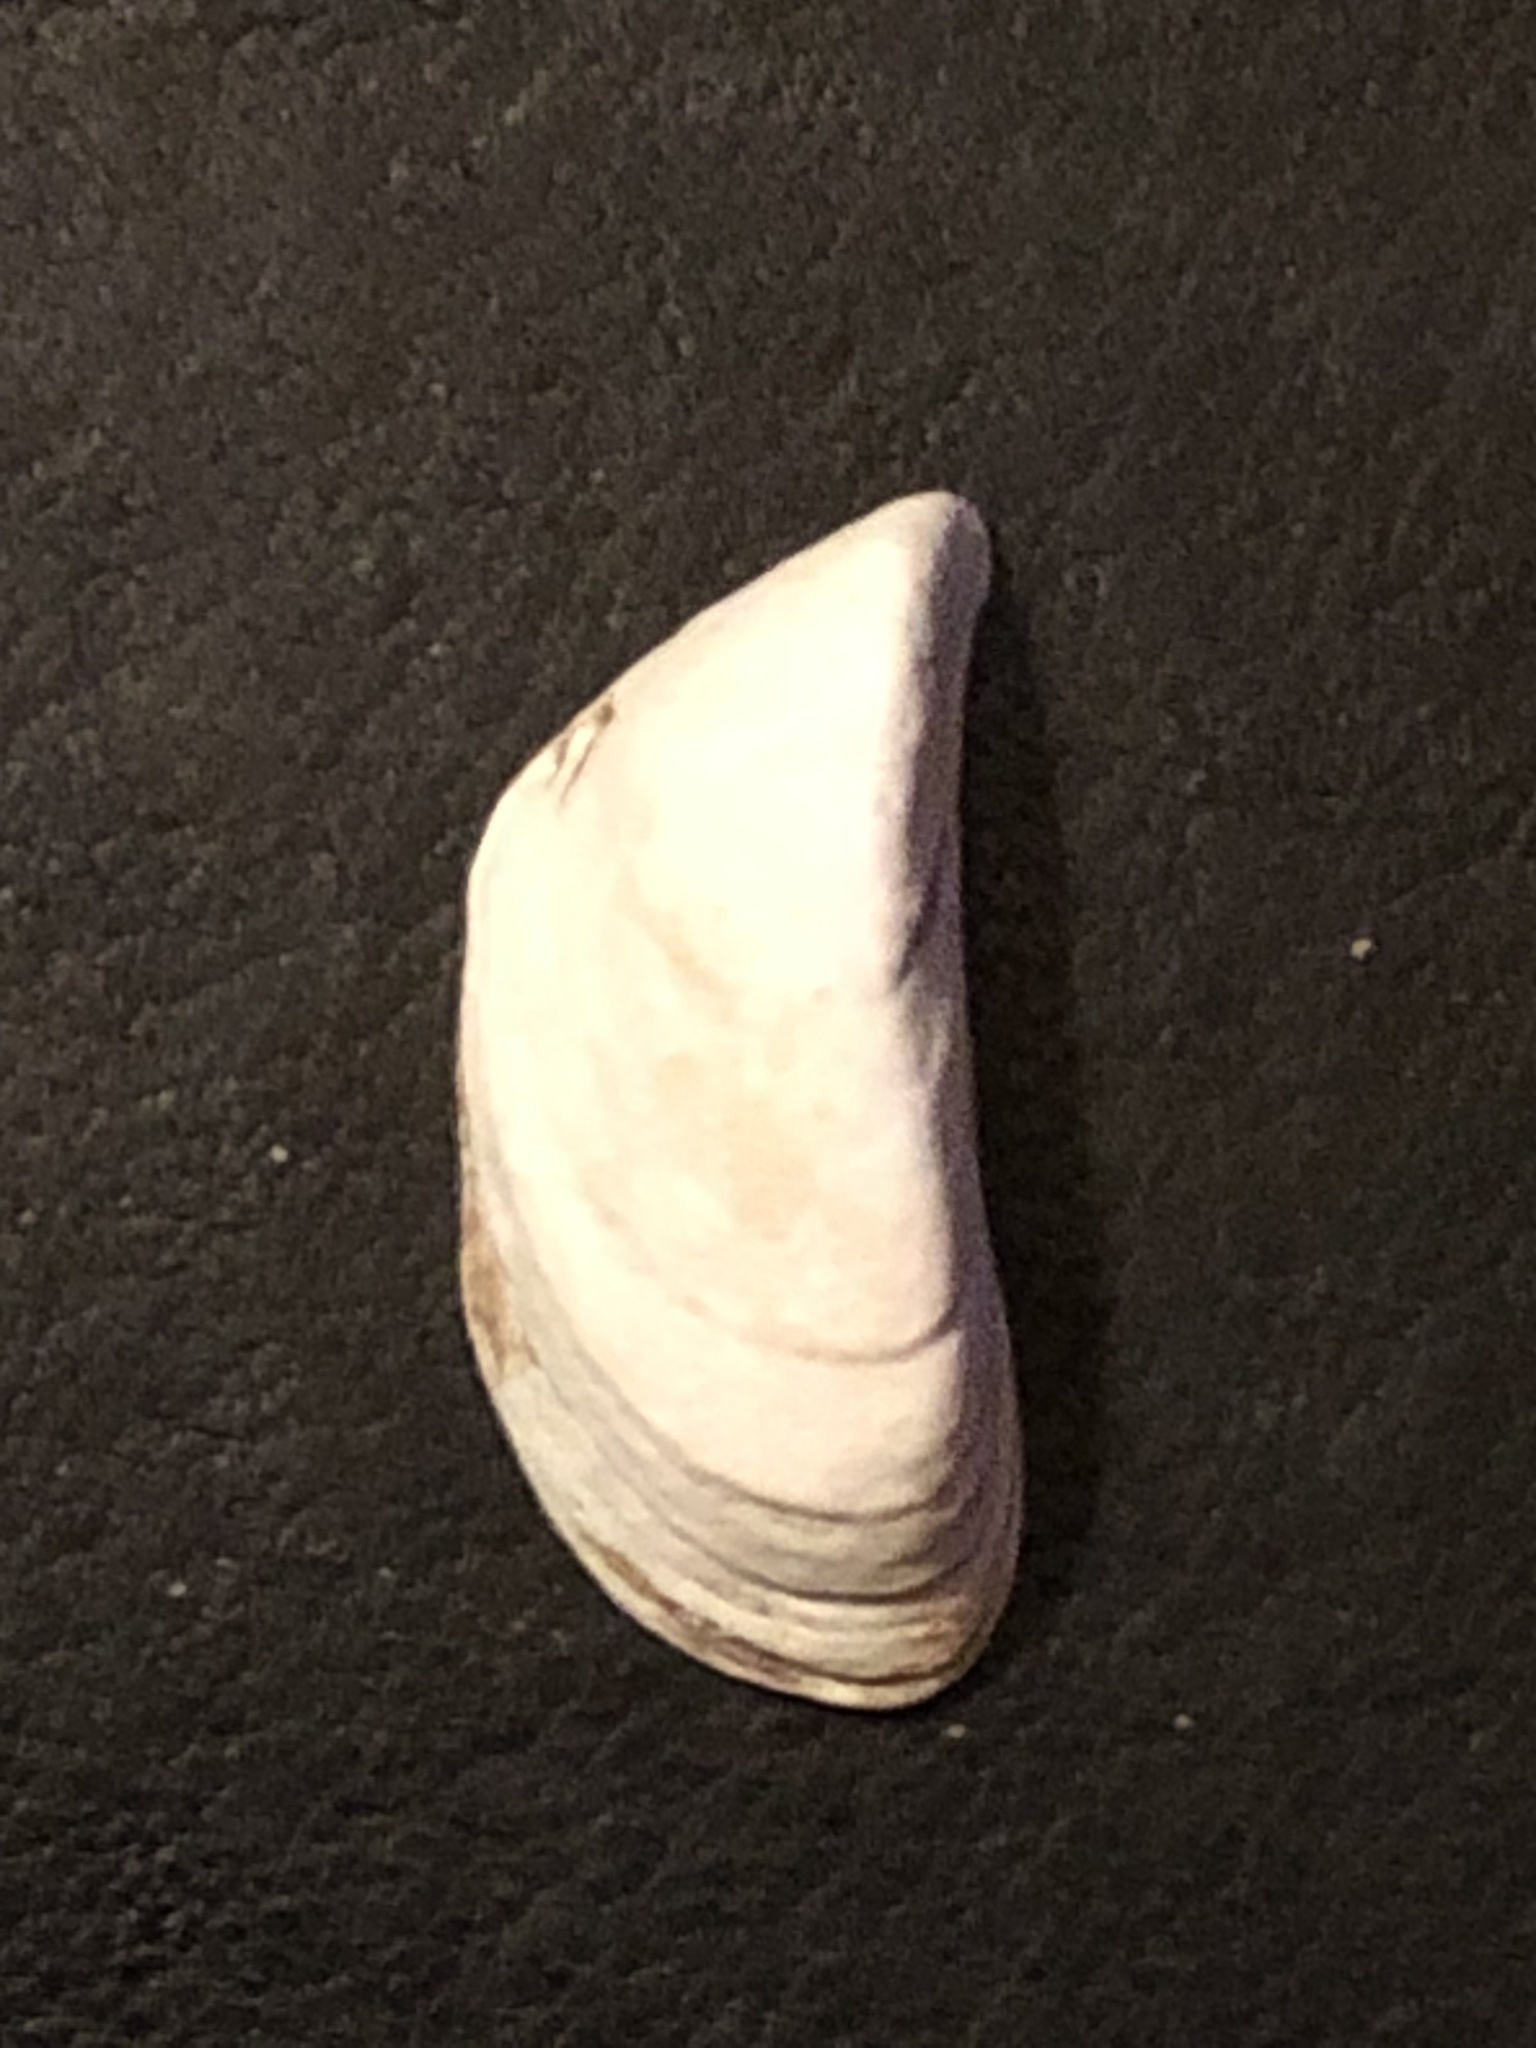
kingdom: Animalia
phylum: Mollusca
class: Bivalvia
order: Myida
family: Dreissenidae
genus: Dreissena
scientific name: Dreissena polymorpha
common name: Zebra mussel
